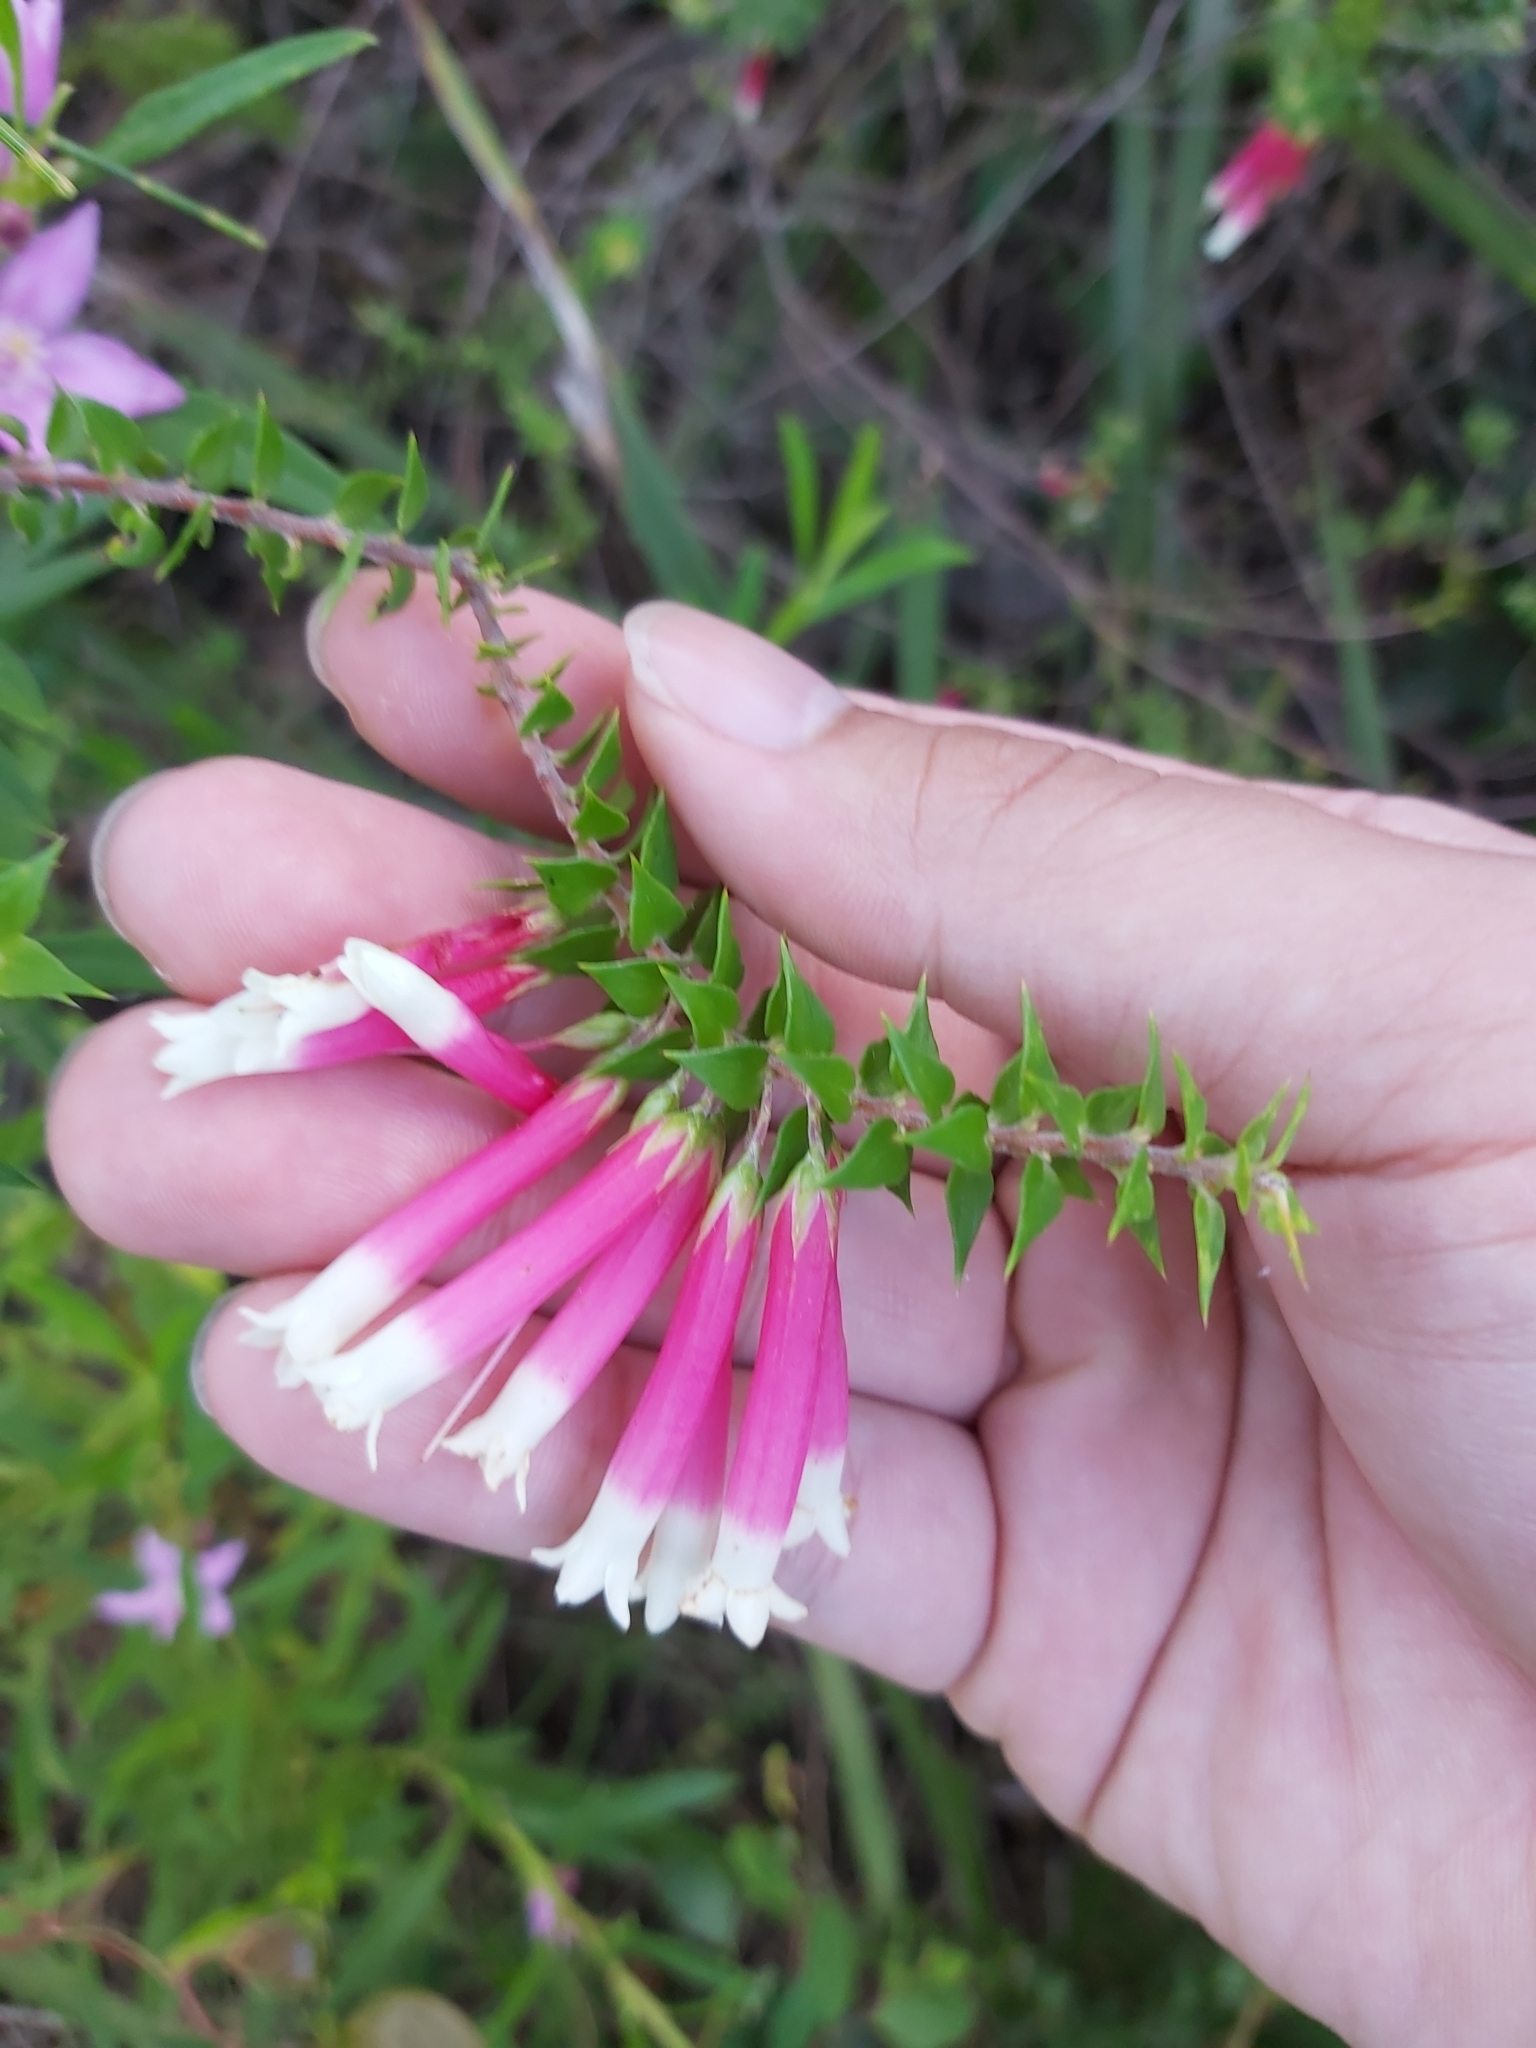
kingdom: Plantae
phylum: Tracheophyta
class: Magnoliopsida
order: Ericales
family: Ericaceae
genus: Epacris
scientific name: Epacris longiflora
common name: Fuchsia-heath
